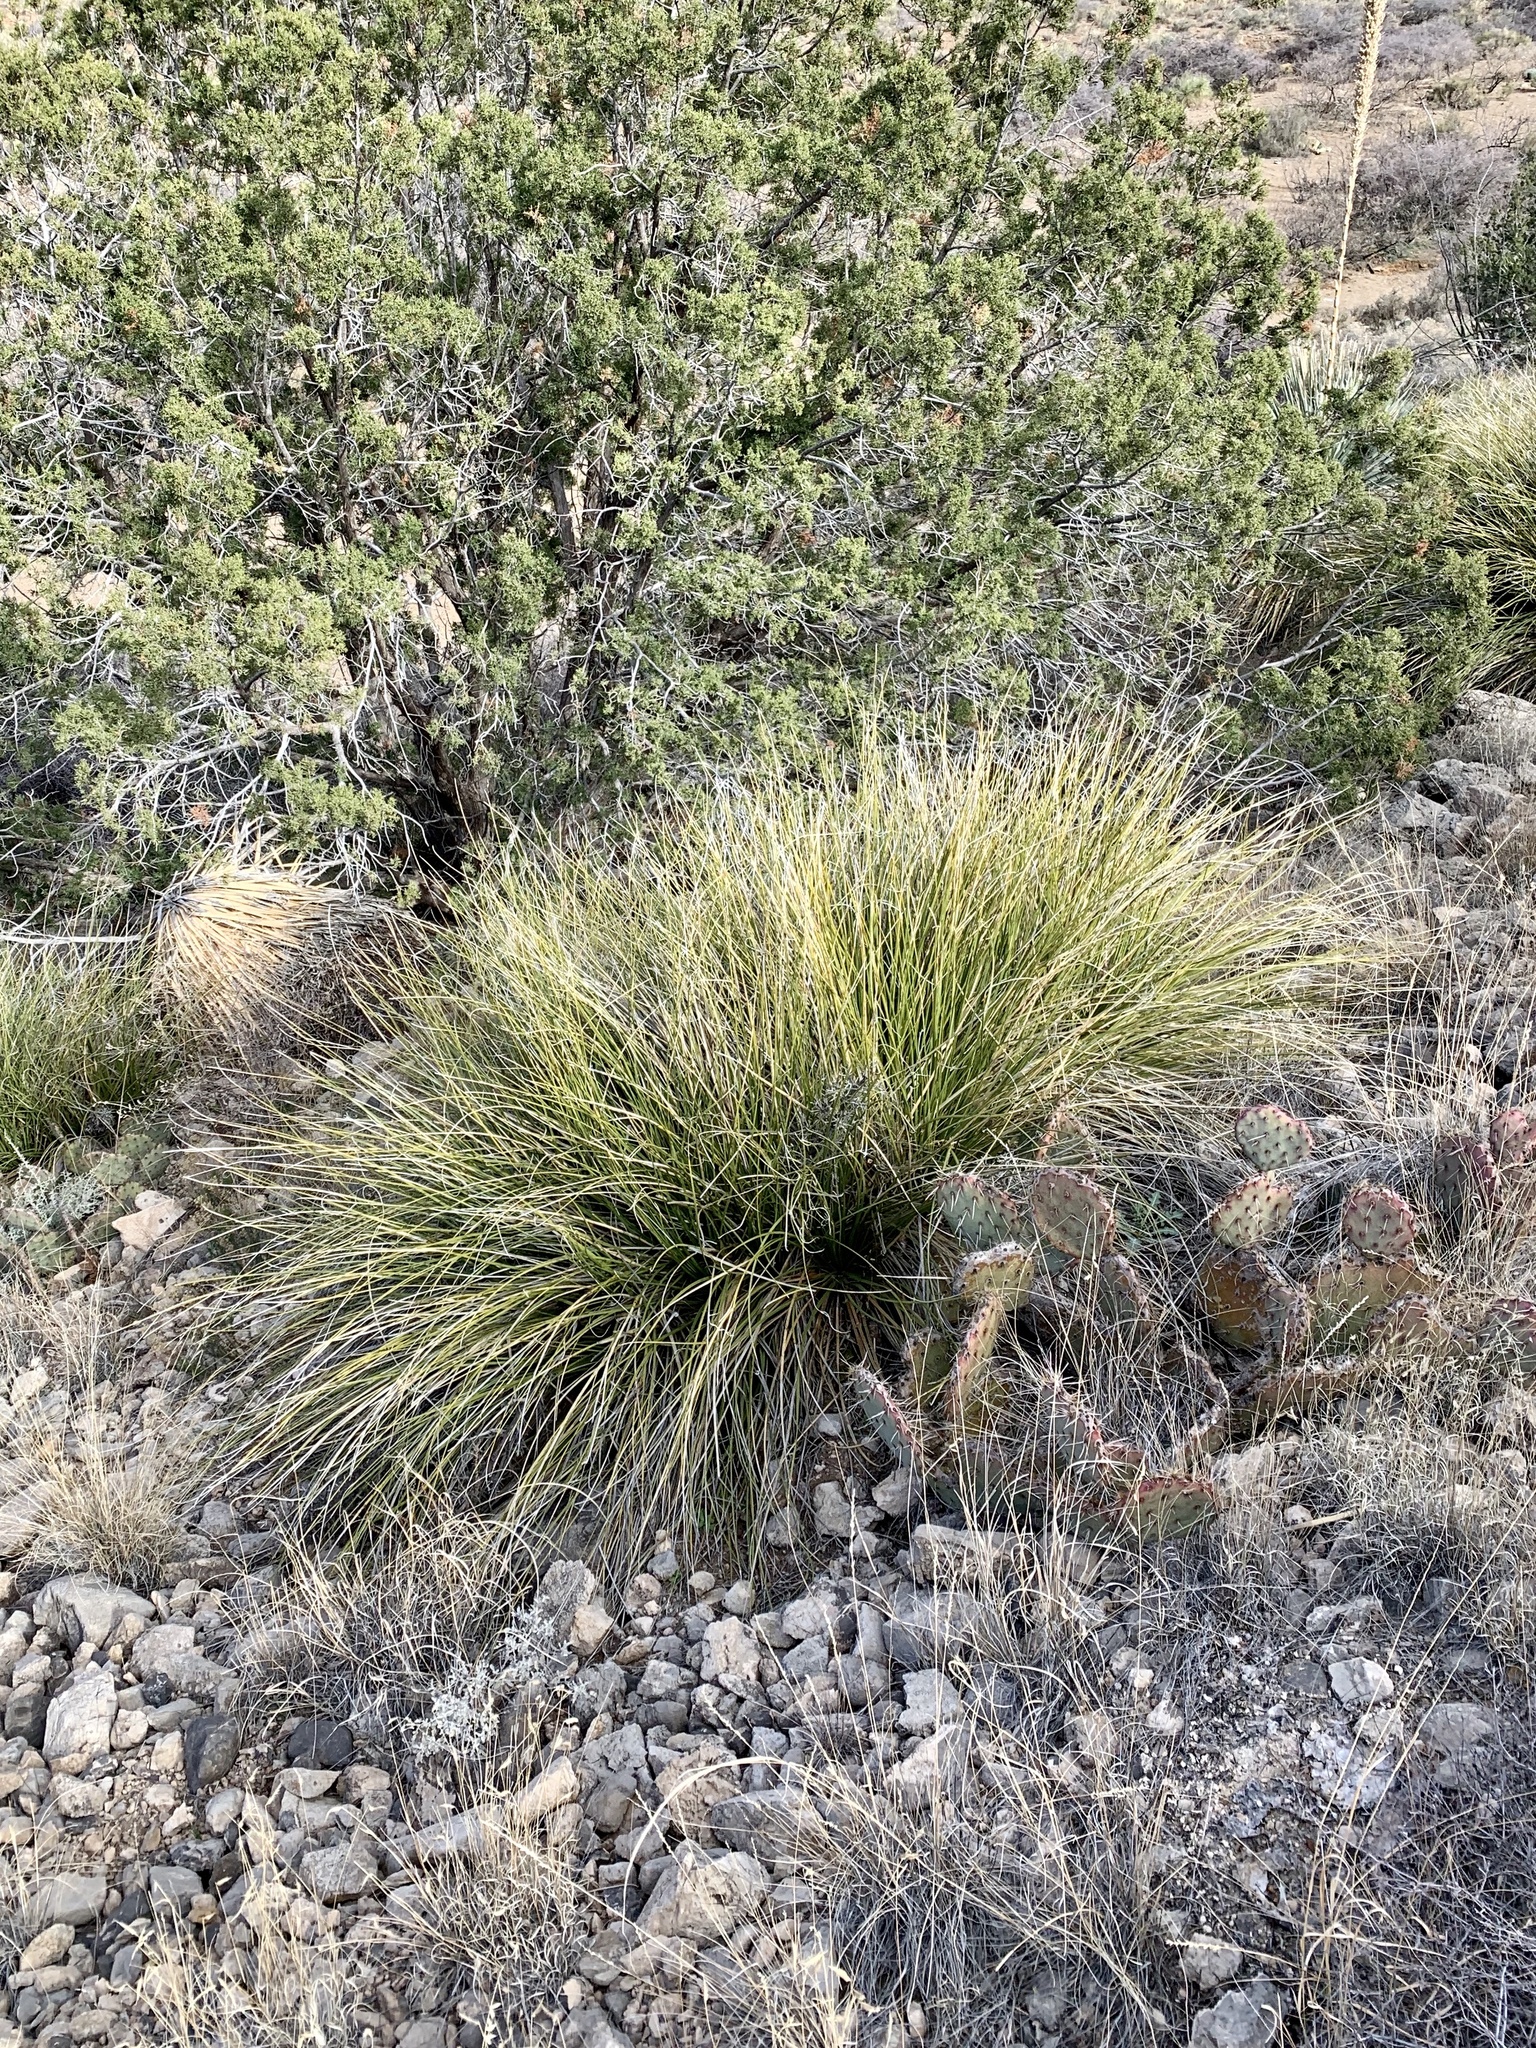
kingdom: Plantae
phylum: Tracheophyta
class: Liliopsida
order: Asparagales
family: Asparagaceae
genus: Nolina
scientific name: Nolina texana
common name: Texas sacahuiste
